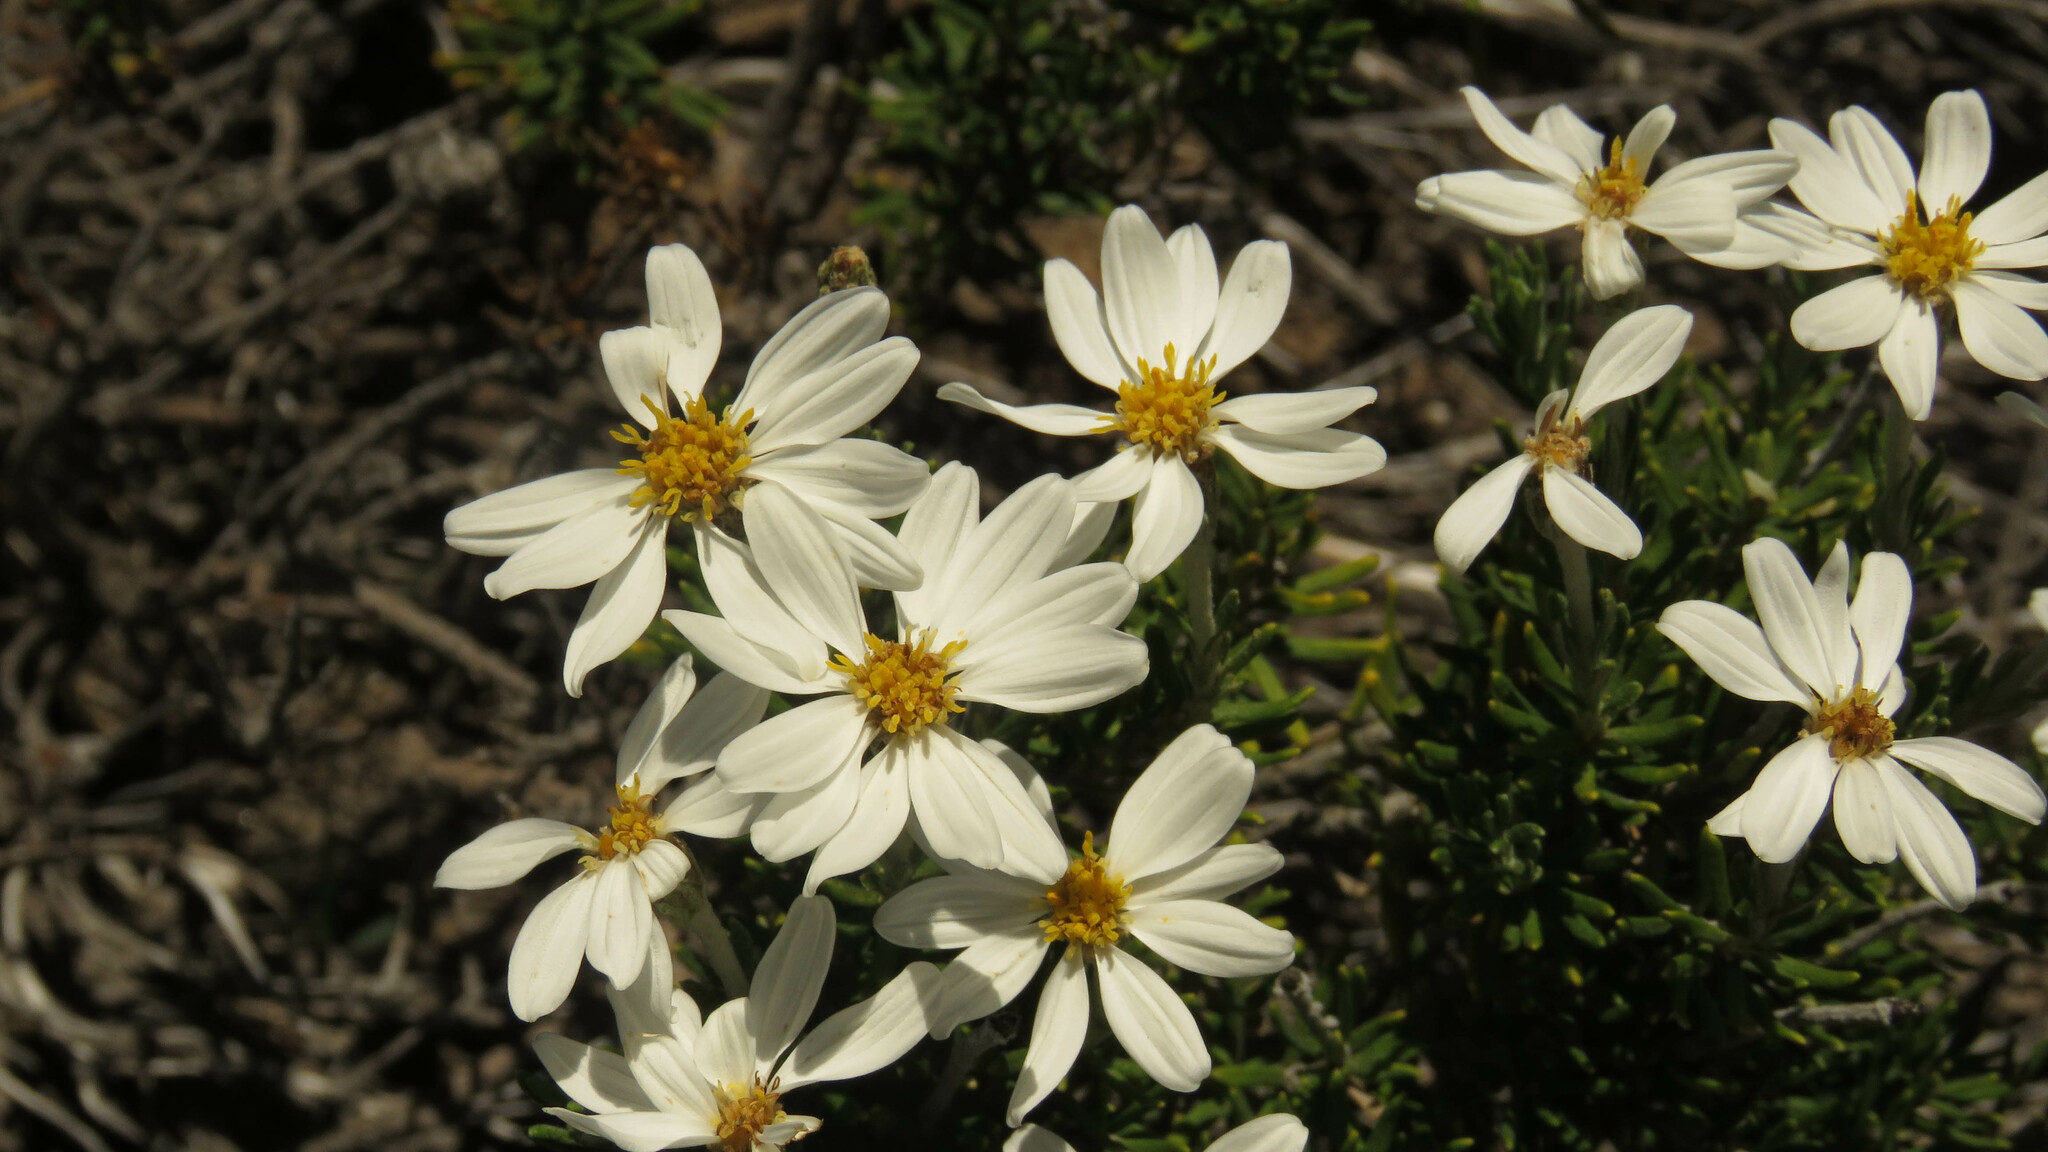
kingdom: Plantae
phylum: Tracheophyta
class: Magnoliopsida
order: Asterales
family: Asteraceae
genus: Chiliotrichum
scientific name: Chiliotrichum diffusum
